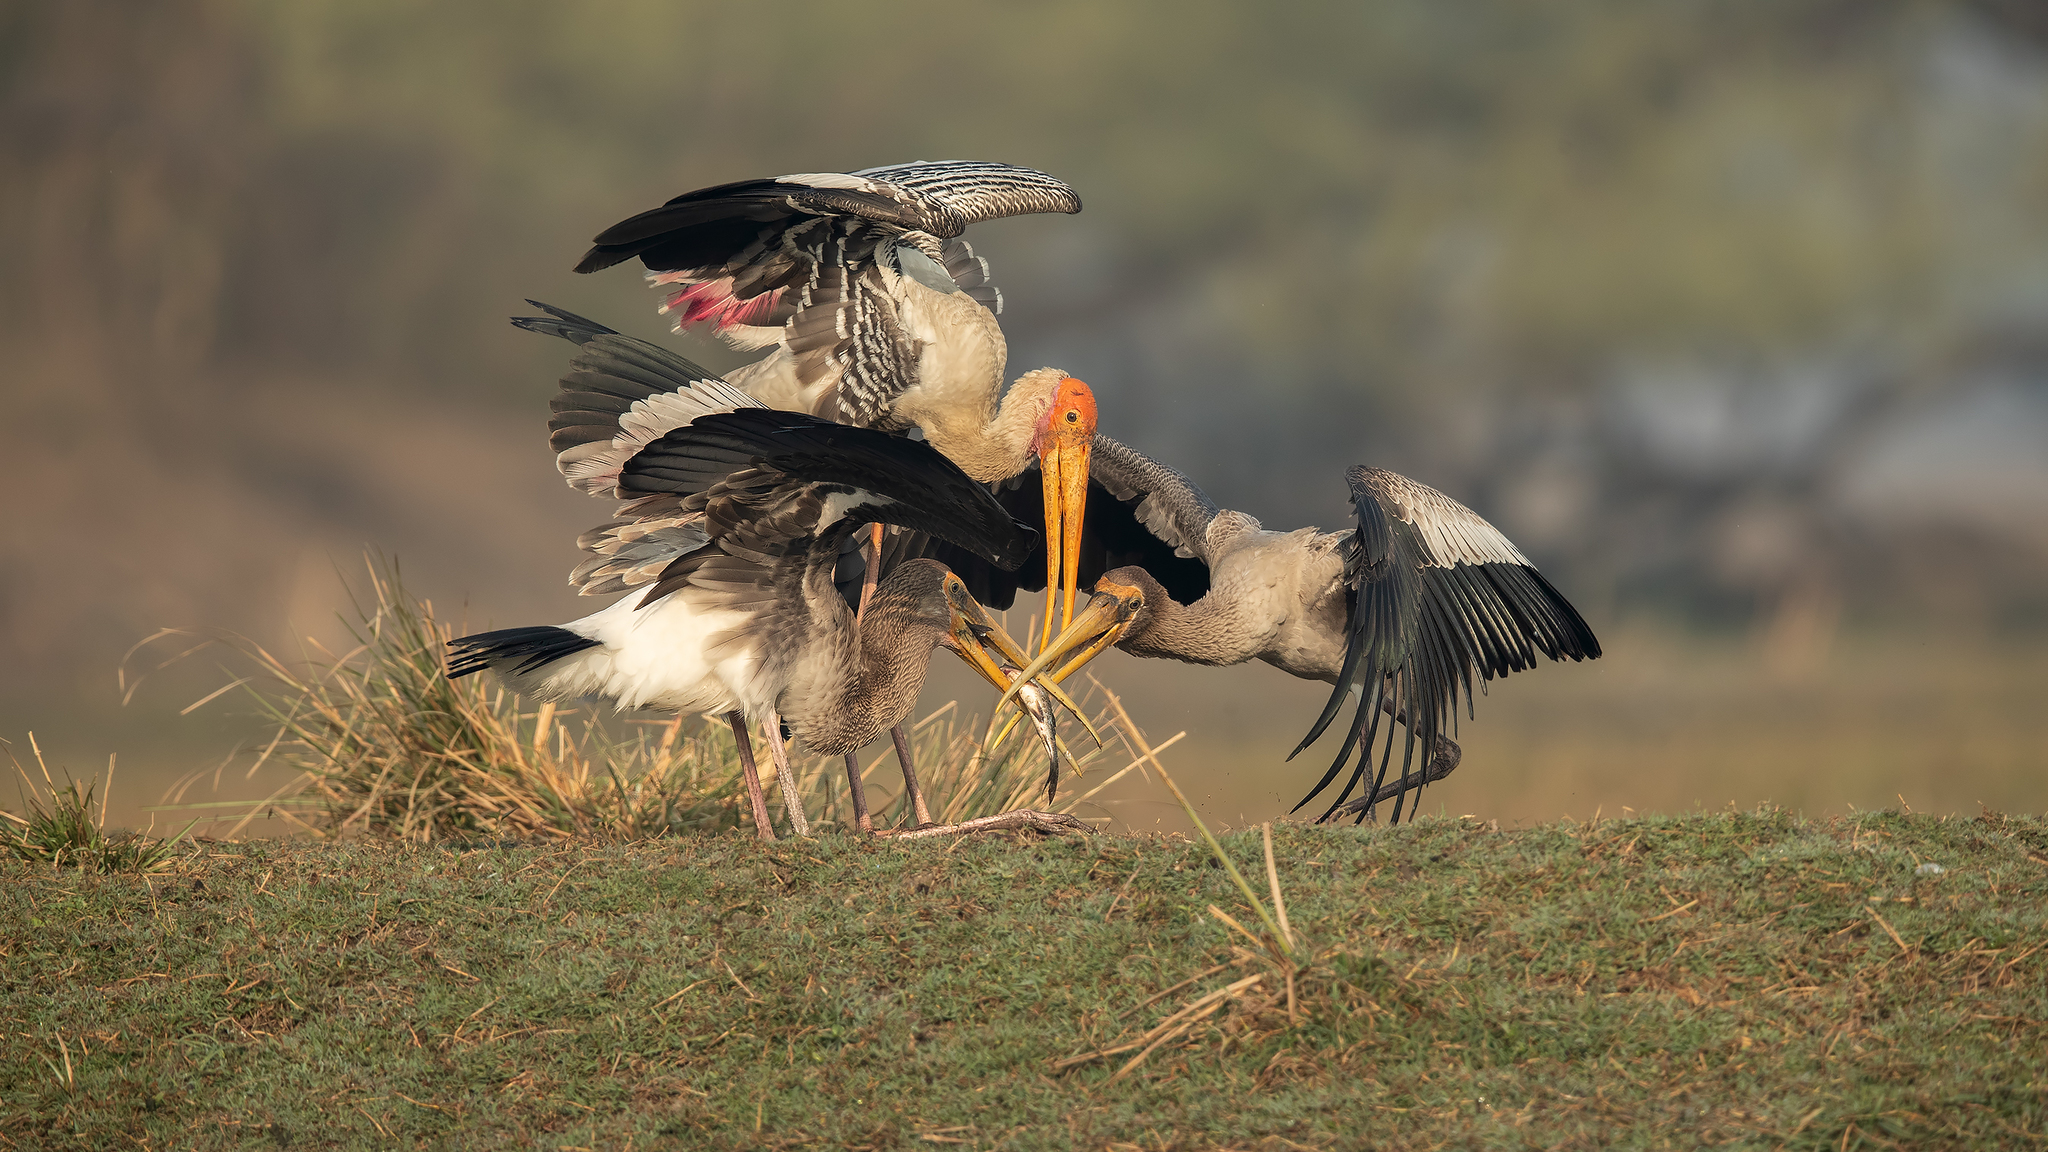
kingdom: Animalia
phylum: Chordata
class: Aves
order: Ciconiiformes
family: Ciconiidae
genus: Mycteria
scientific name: Mycteria leucocephala
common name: Painted stork
